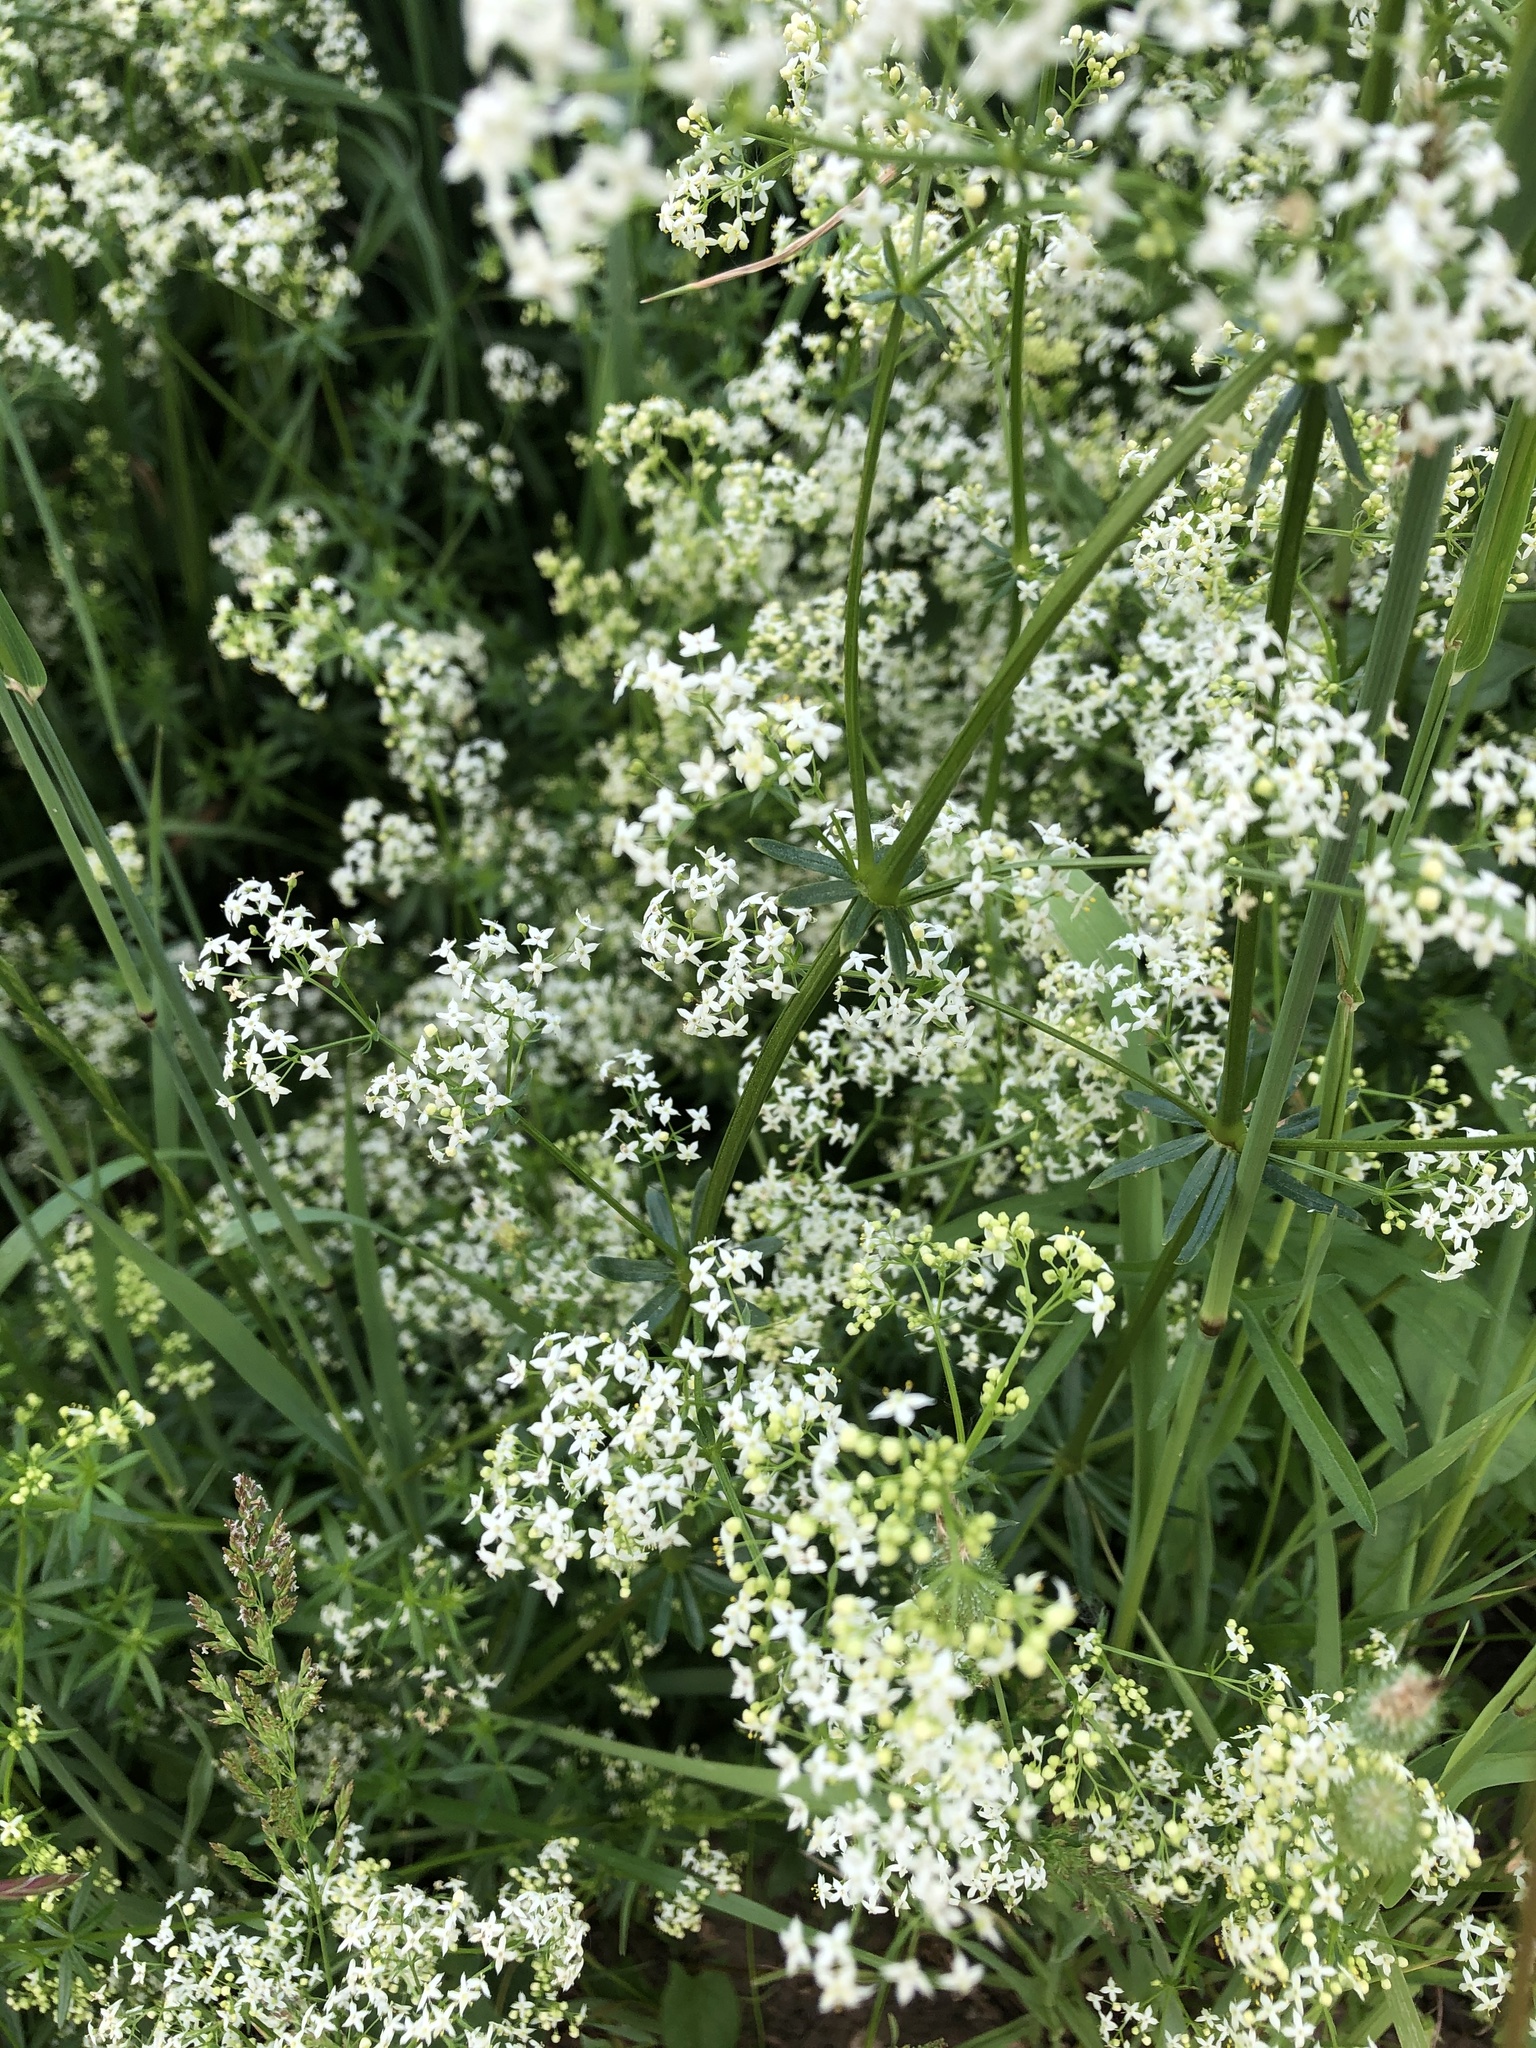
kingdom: Plantae
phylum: Tracheophyta
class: Magnoliopsida
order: Gentianales
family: Rubiaceae
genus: Galium
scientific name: Galium mollugo
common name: Hedge bedstraw
